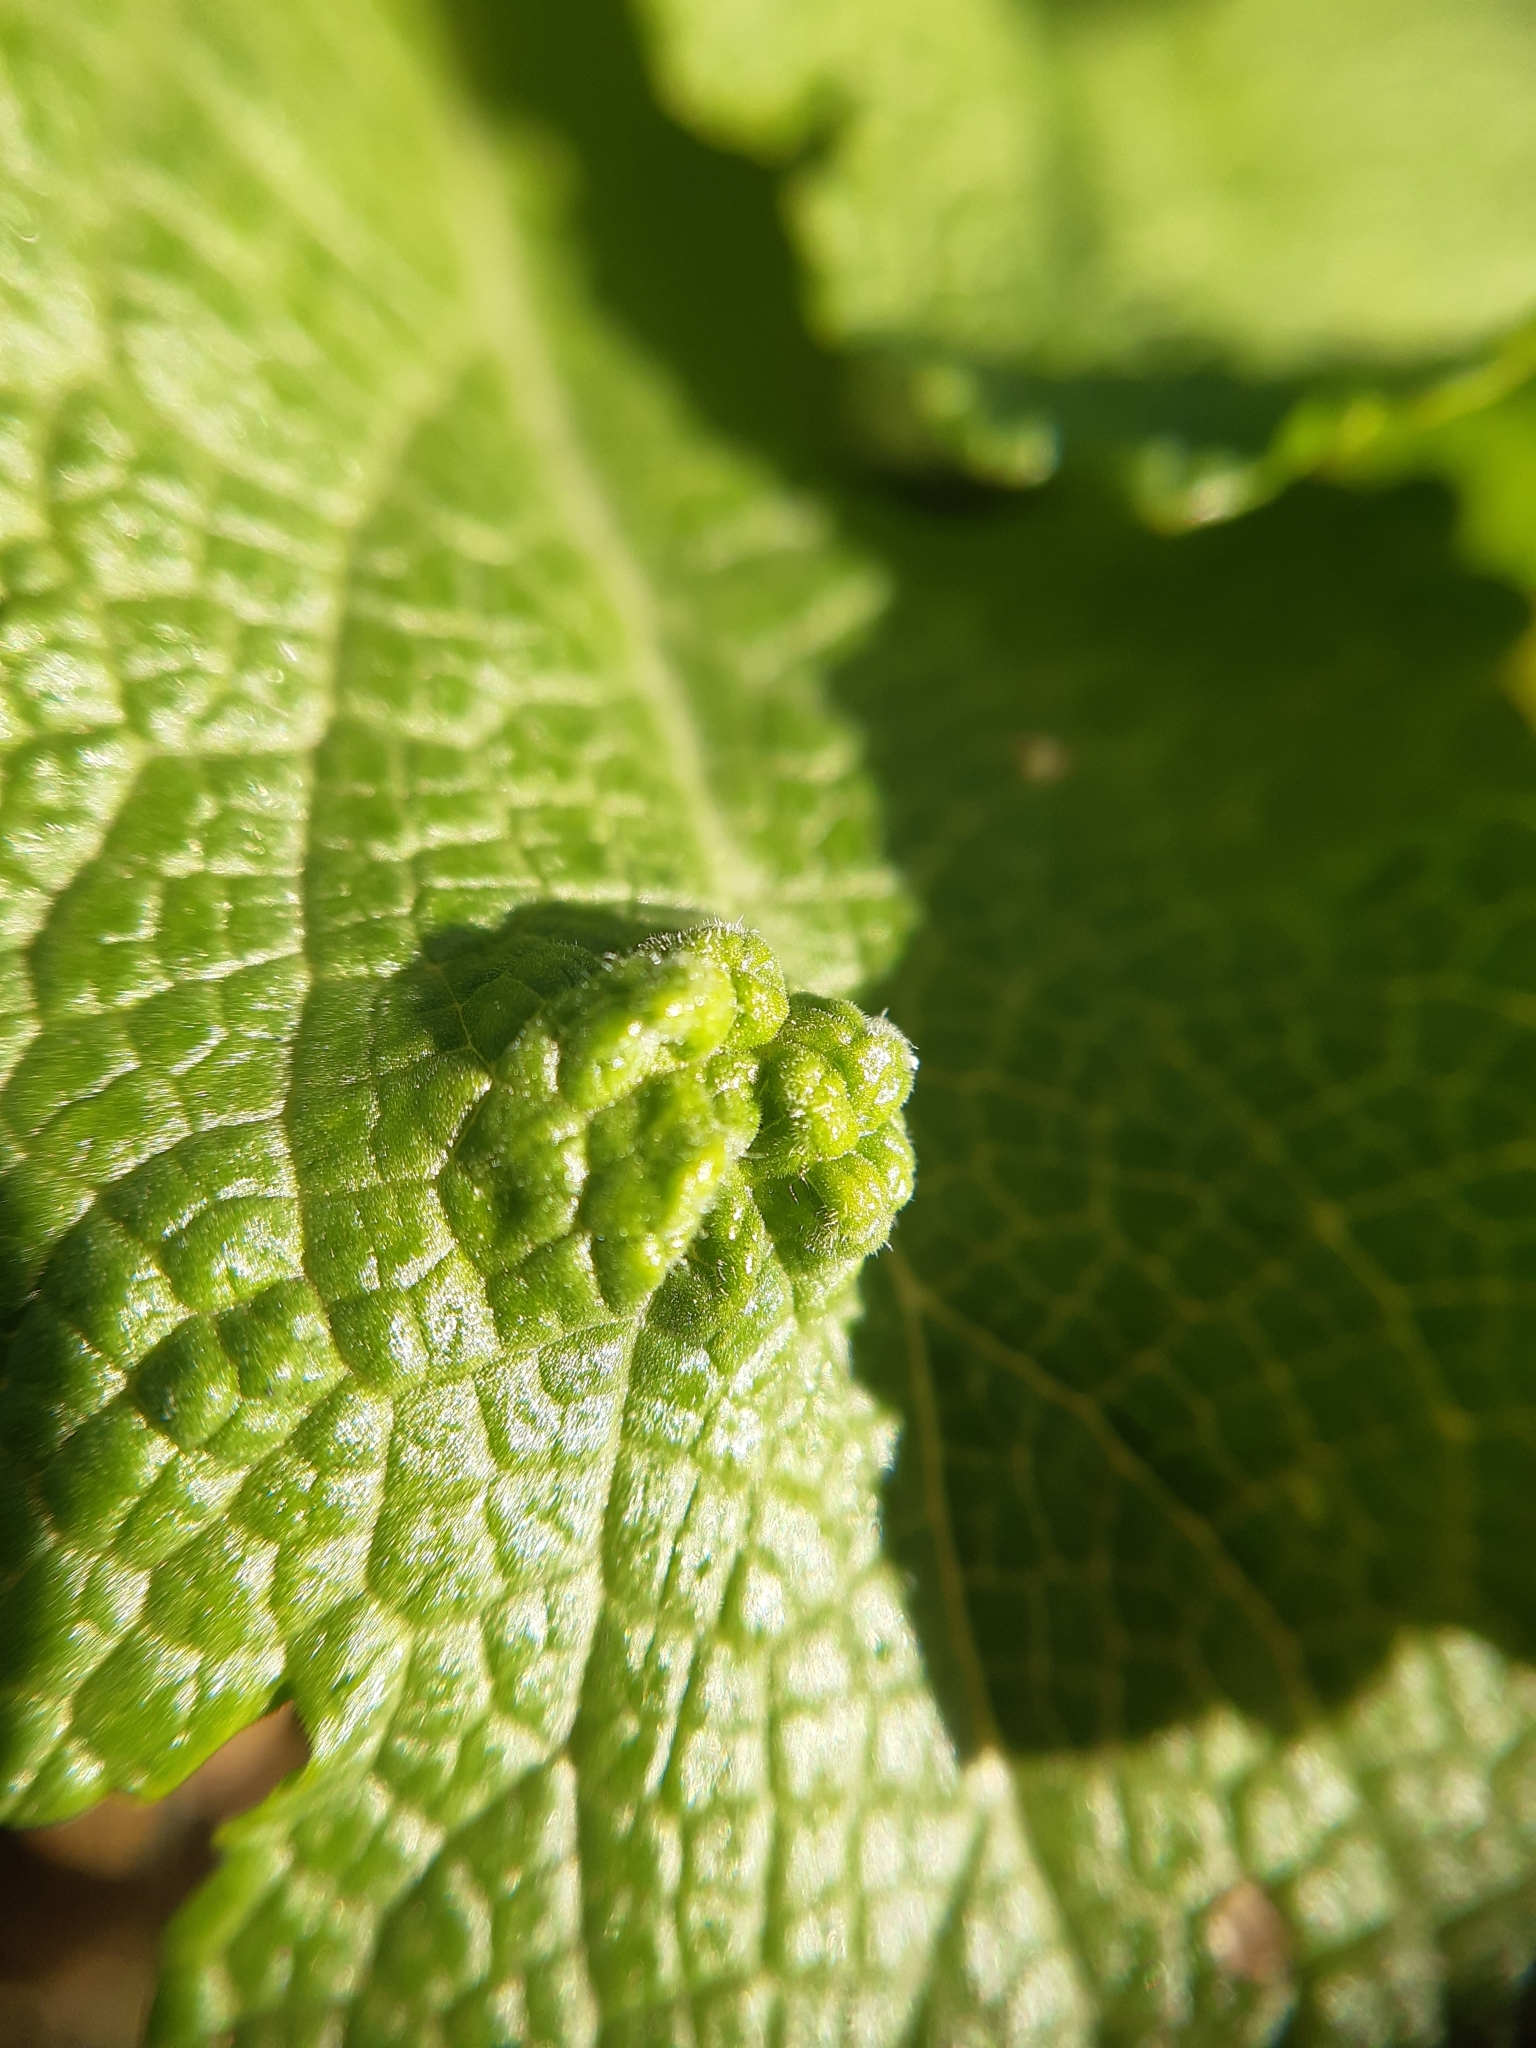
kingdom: Animalia
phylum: Arthropoda
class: Arachnida
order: Trombidiformes
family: Eriophyidae
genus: Aceria
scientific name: Aceria salviae
